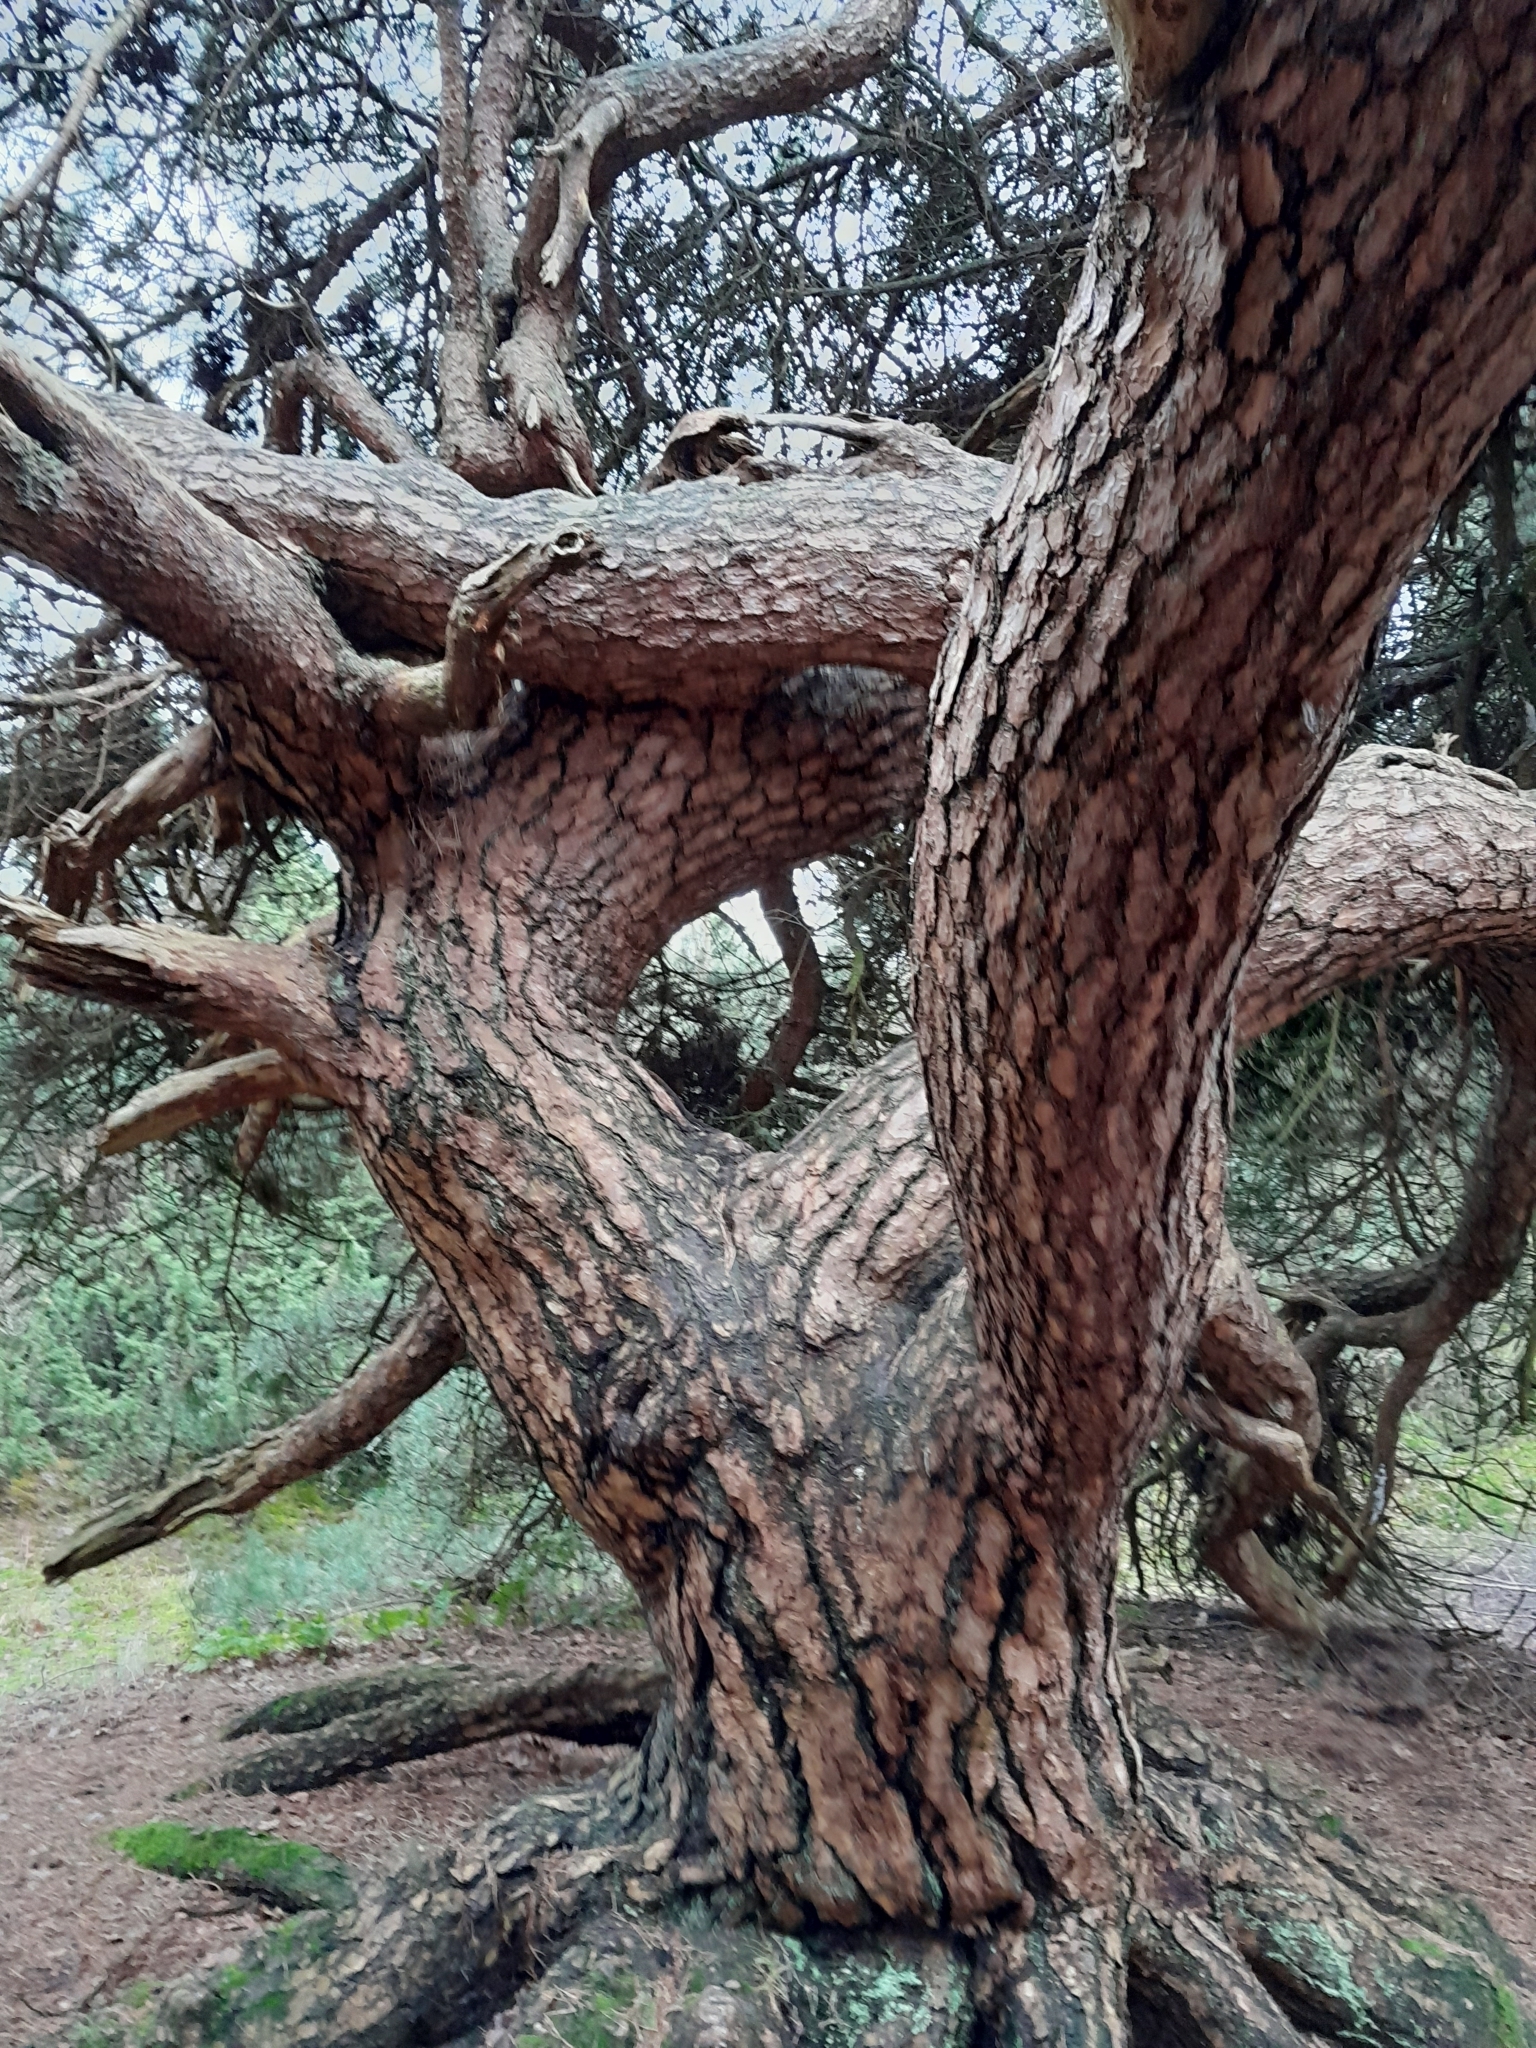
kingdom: Plantae
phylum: Tracheophyta
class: Pinopsida
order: Pinales
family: Pinaceae
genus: Pinus
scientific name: Pinus sylvestris
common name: Scots pine
